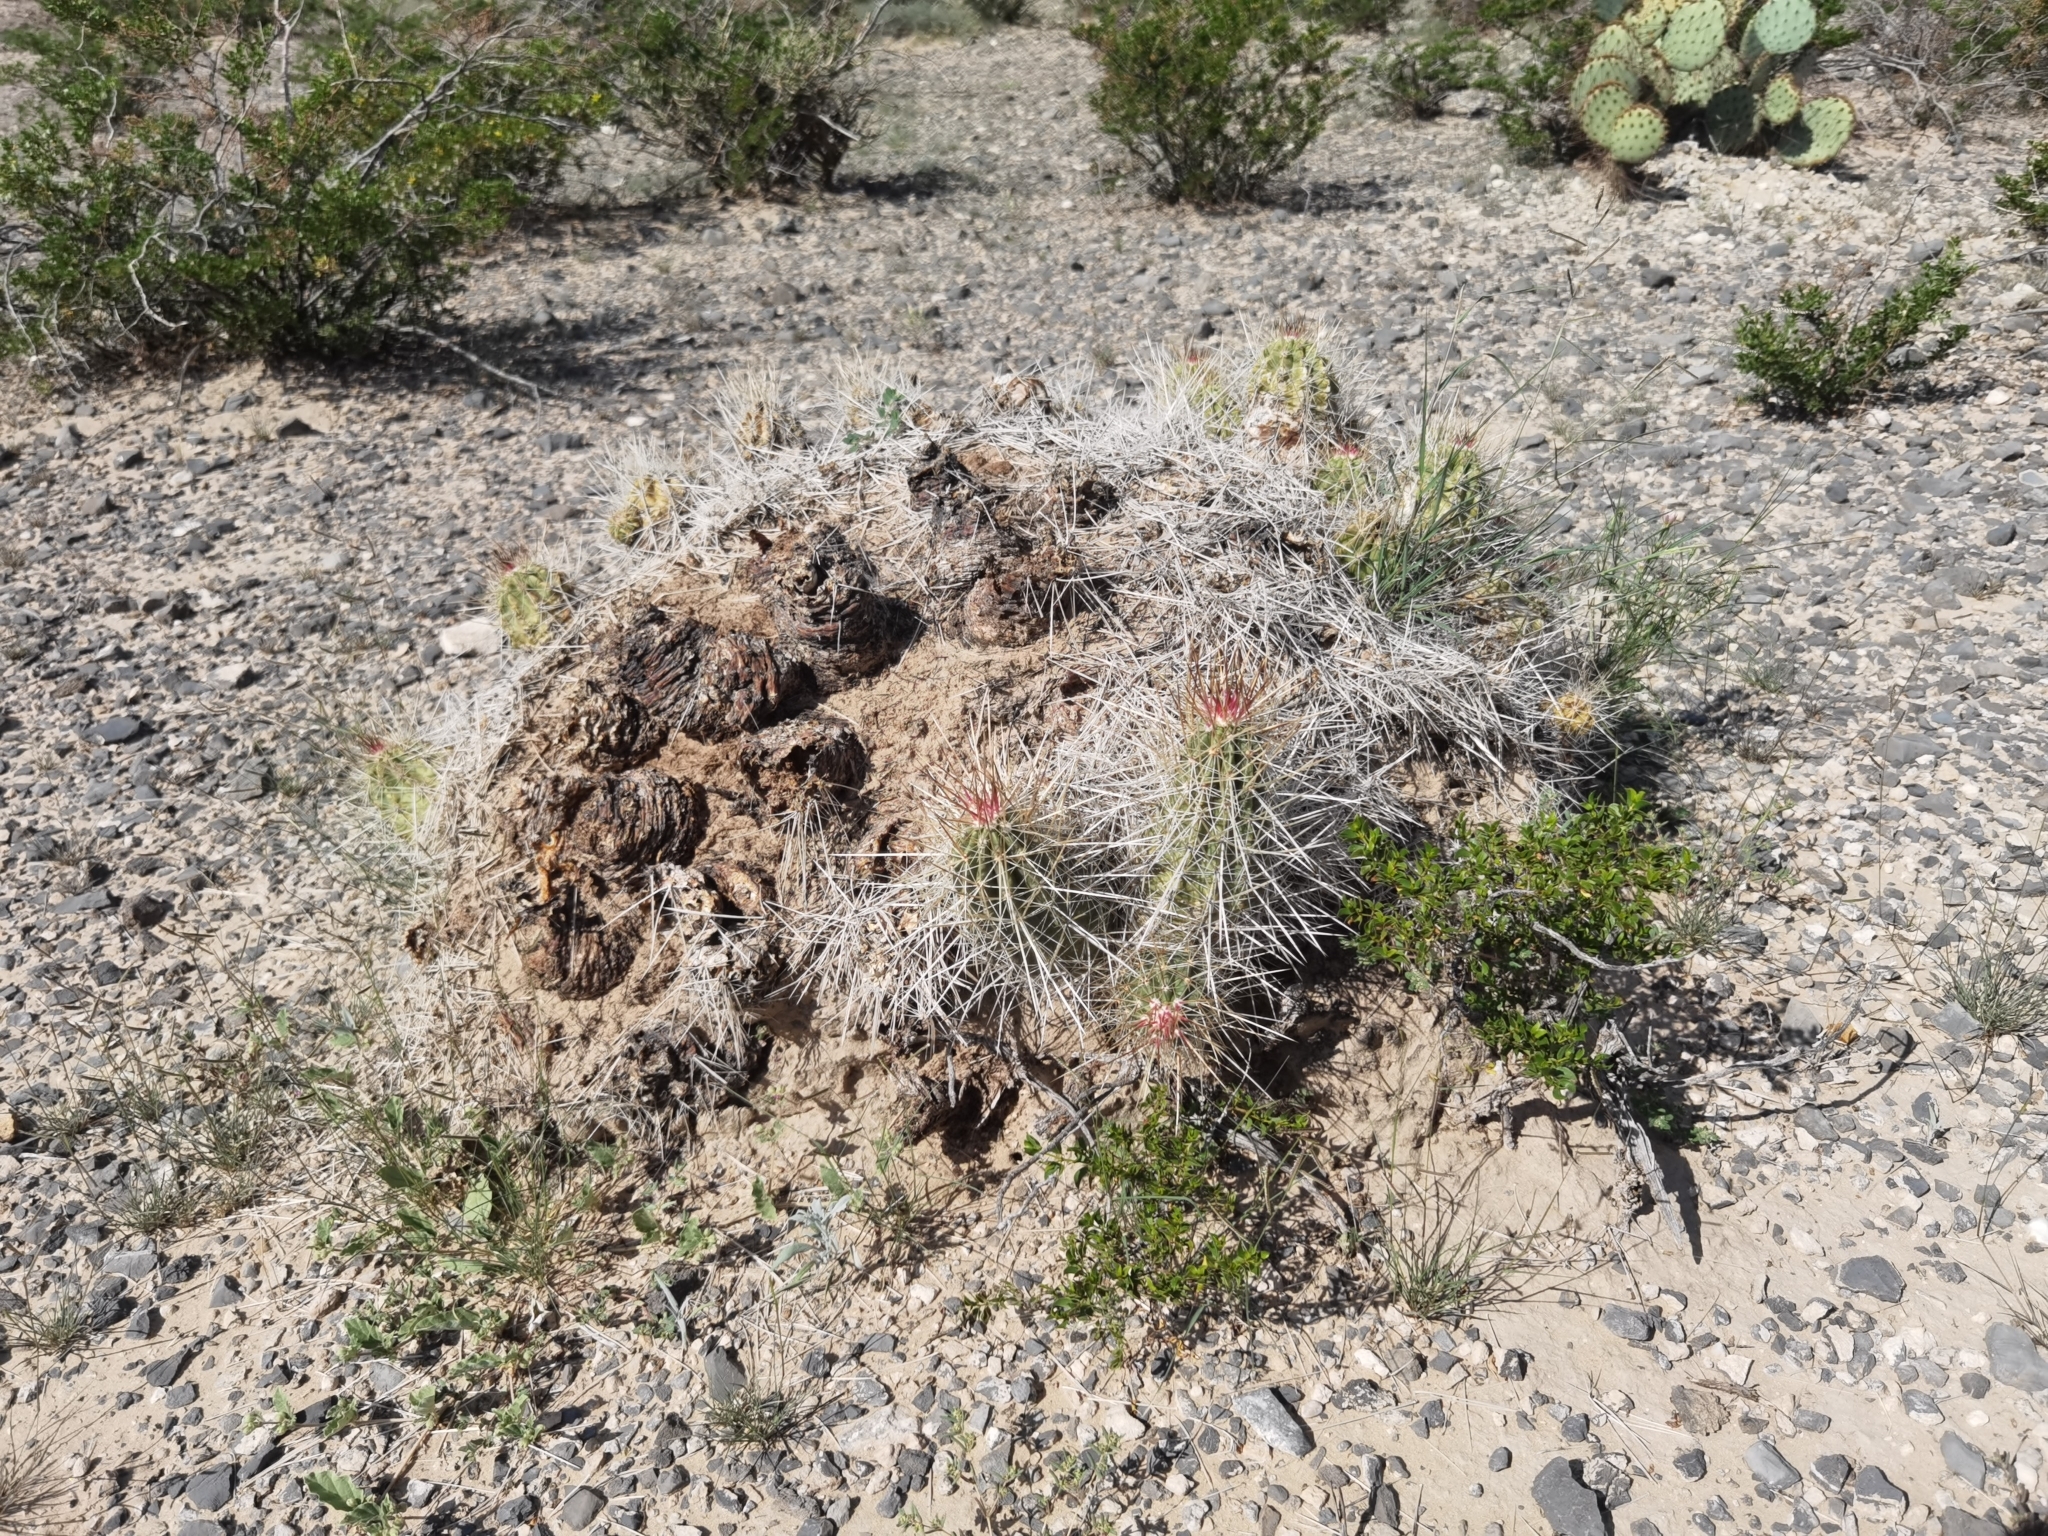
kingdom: Plantae
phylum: Tracheophyta
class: Magnoliopsida
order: Caryophyllales
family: Cactaceae
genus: Echinocereus
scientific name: Echinocereus stramineus
